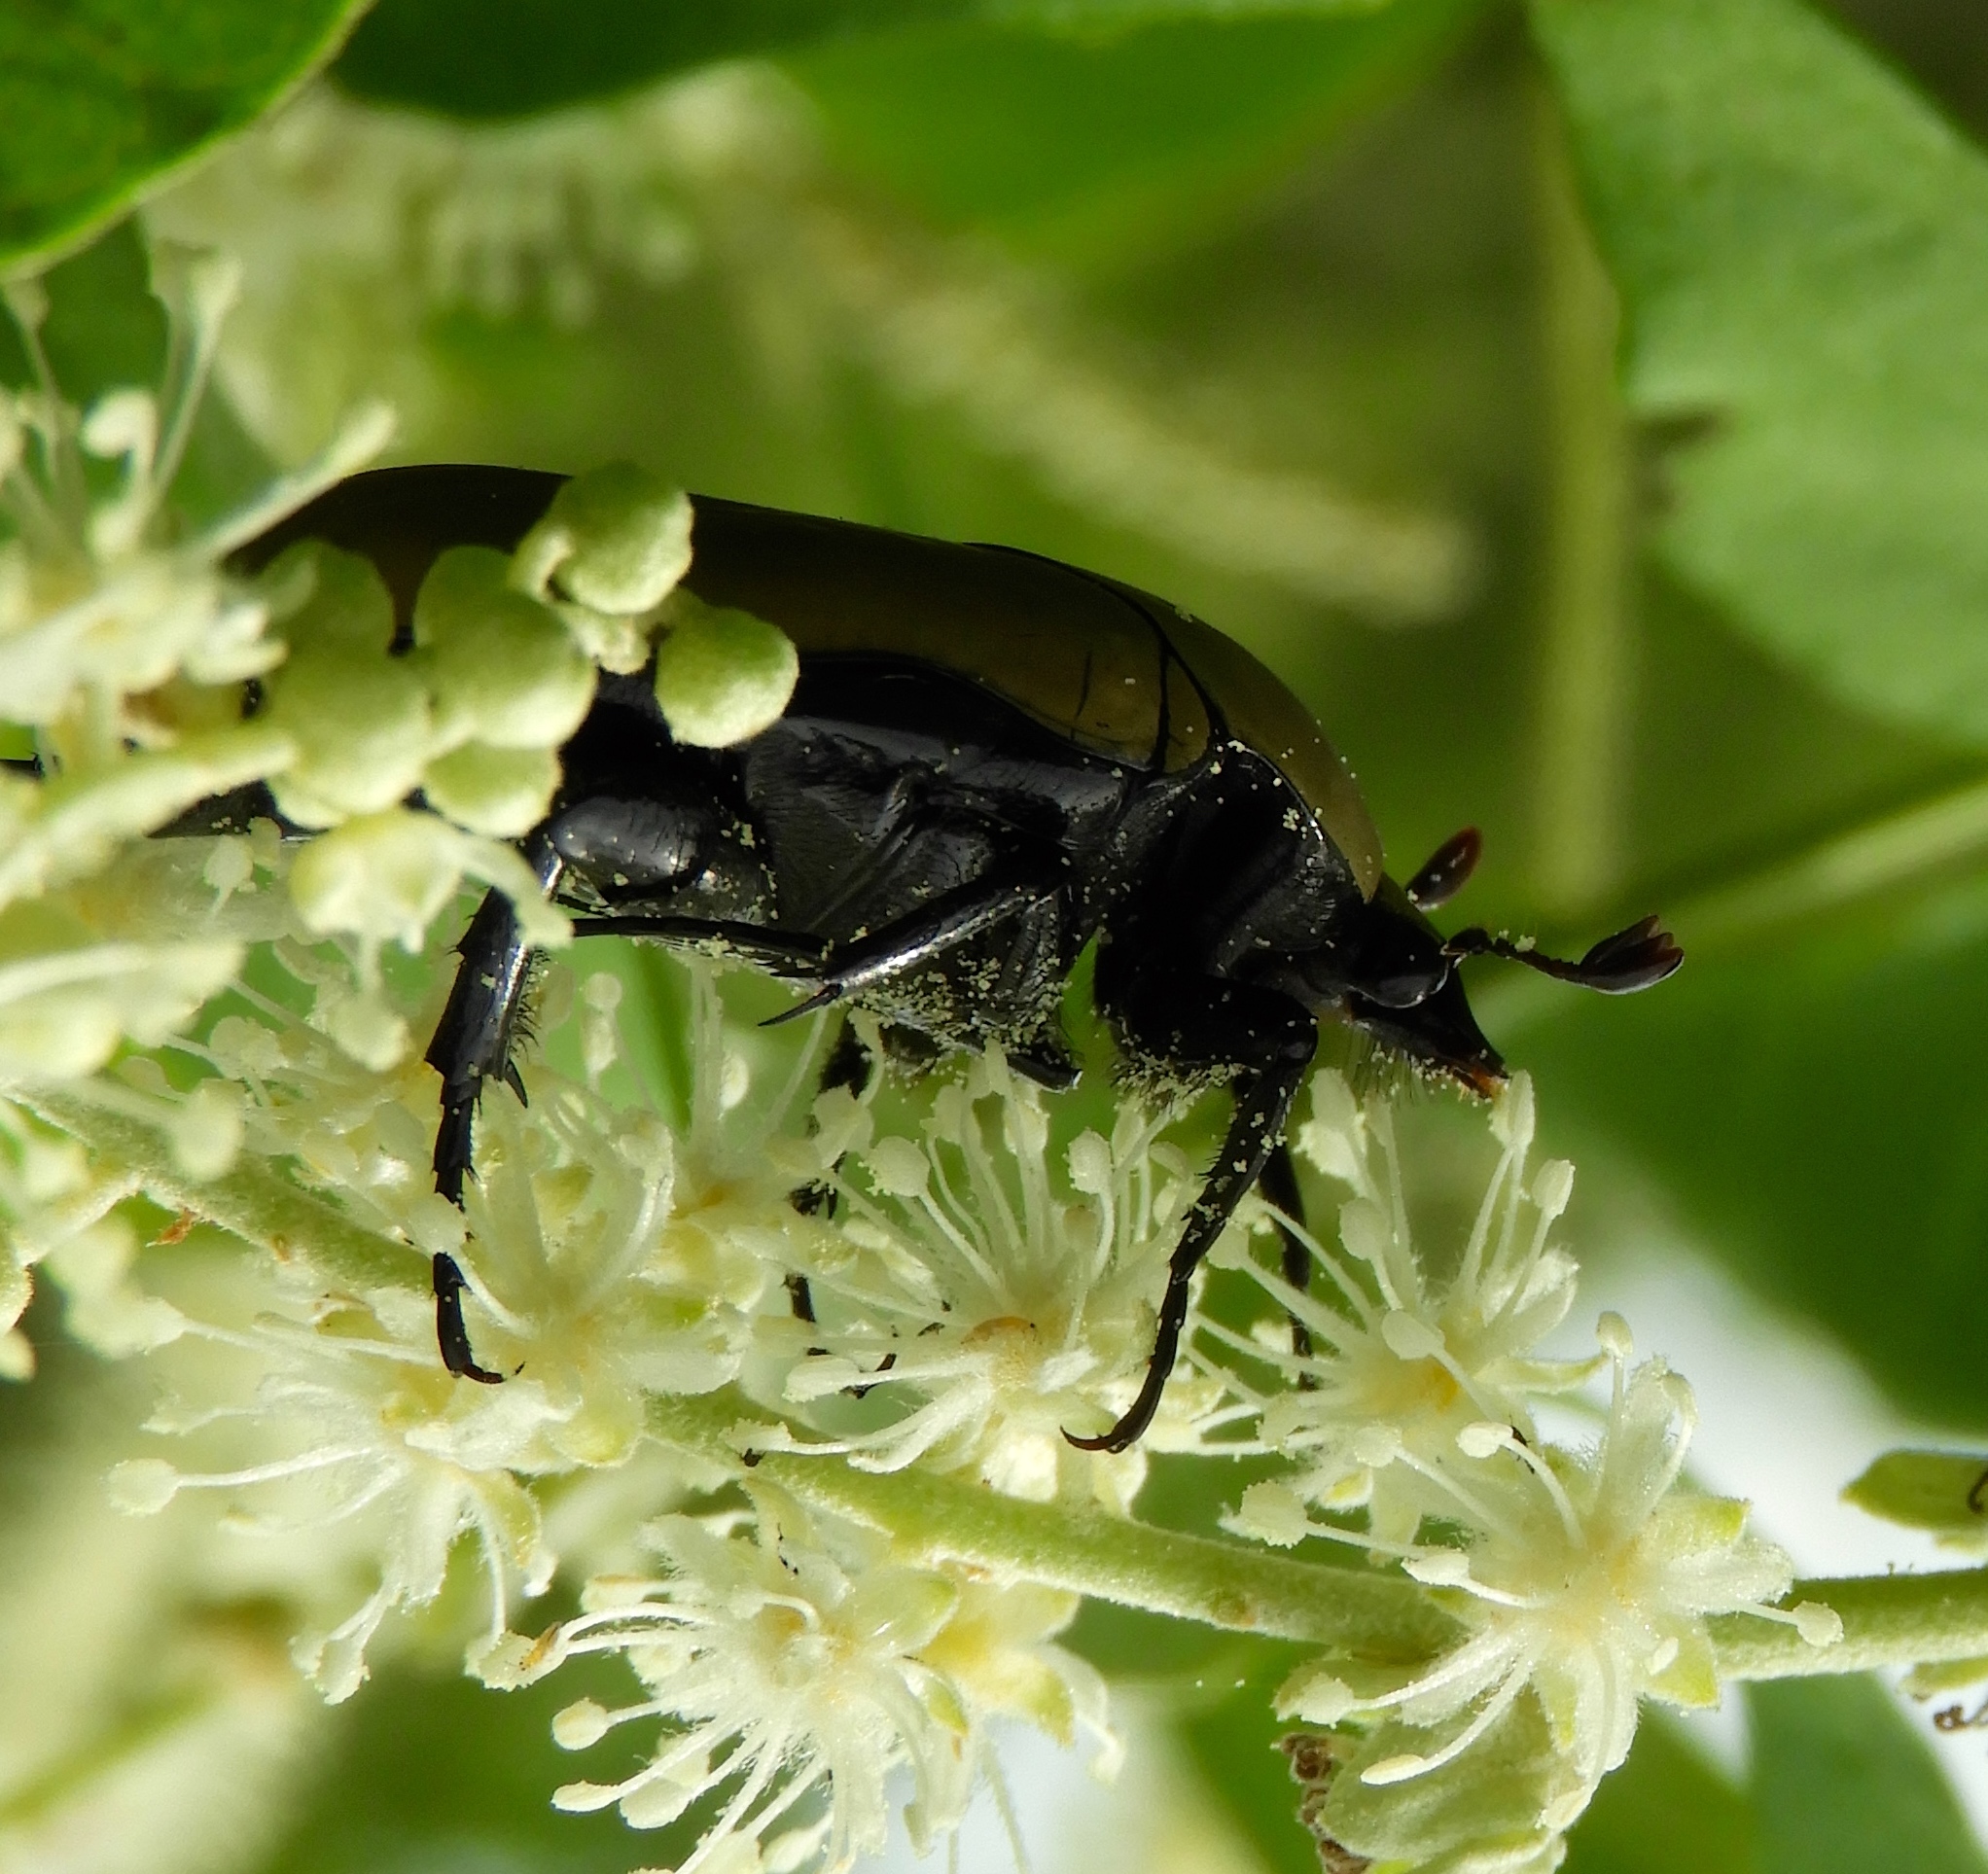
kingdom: Animalia
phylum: Arthropoda
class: Insecta
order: Coleoptera
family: Scarabaeidae
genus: Hologymnetis
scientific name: Hologymnetis cinerea
